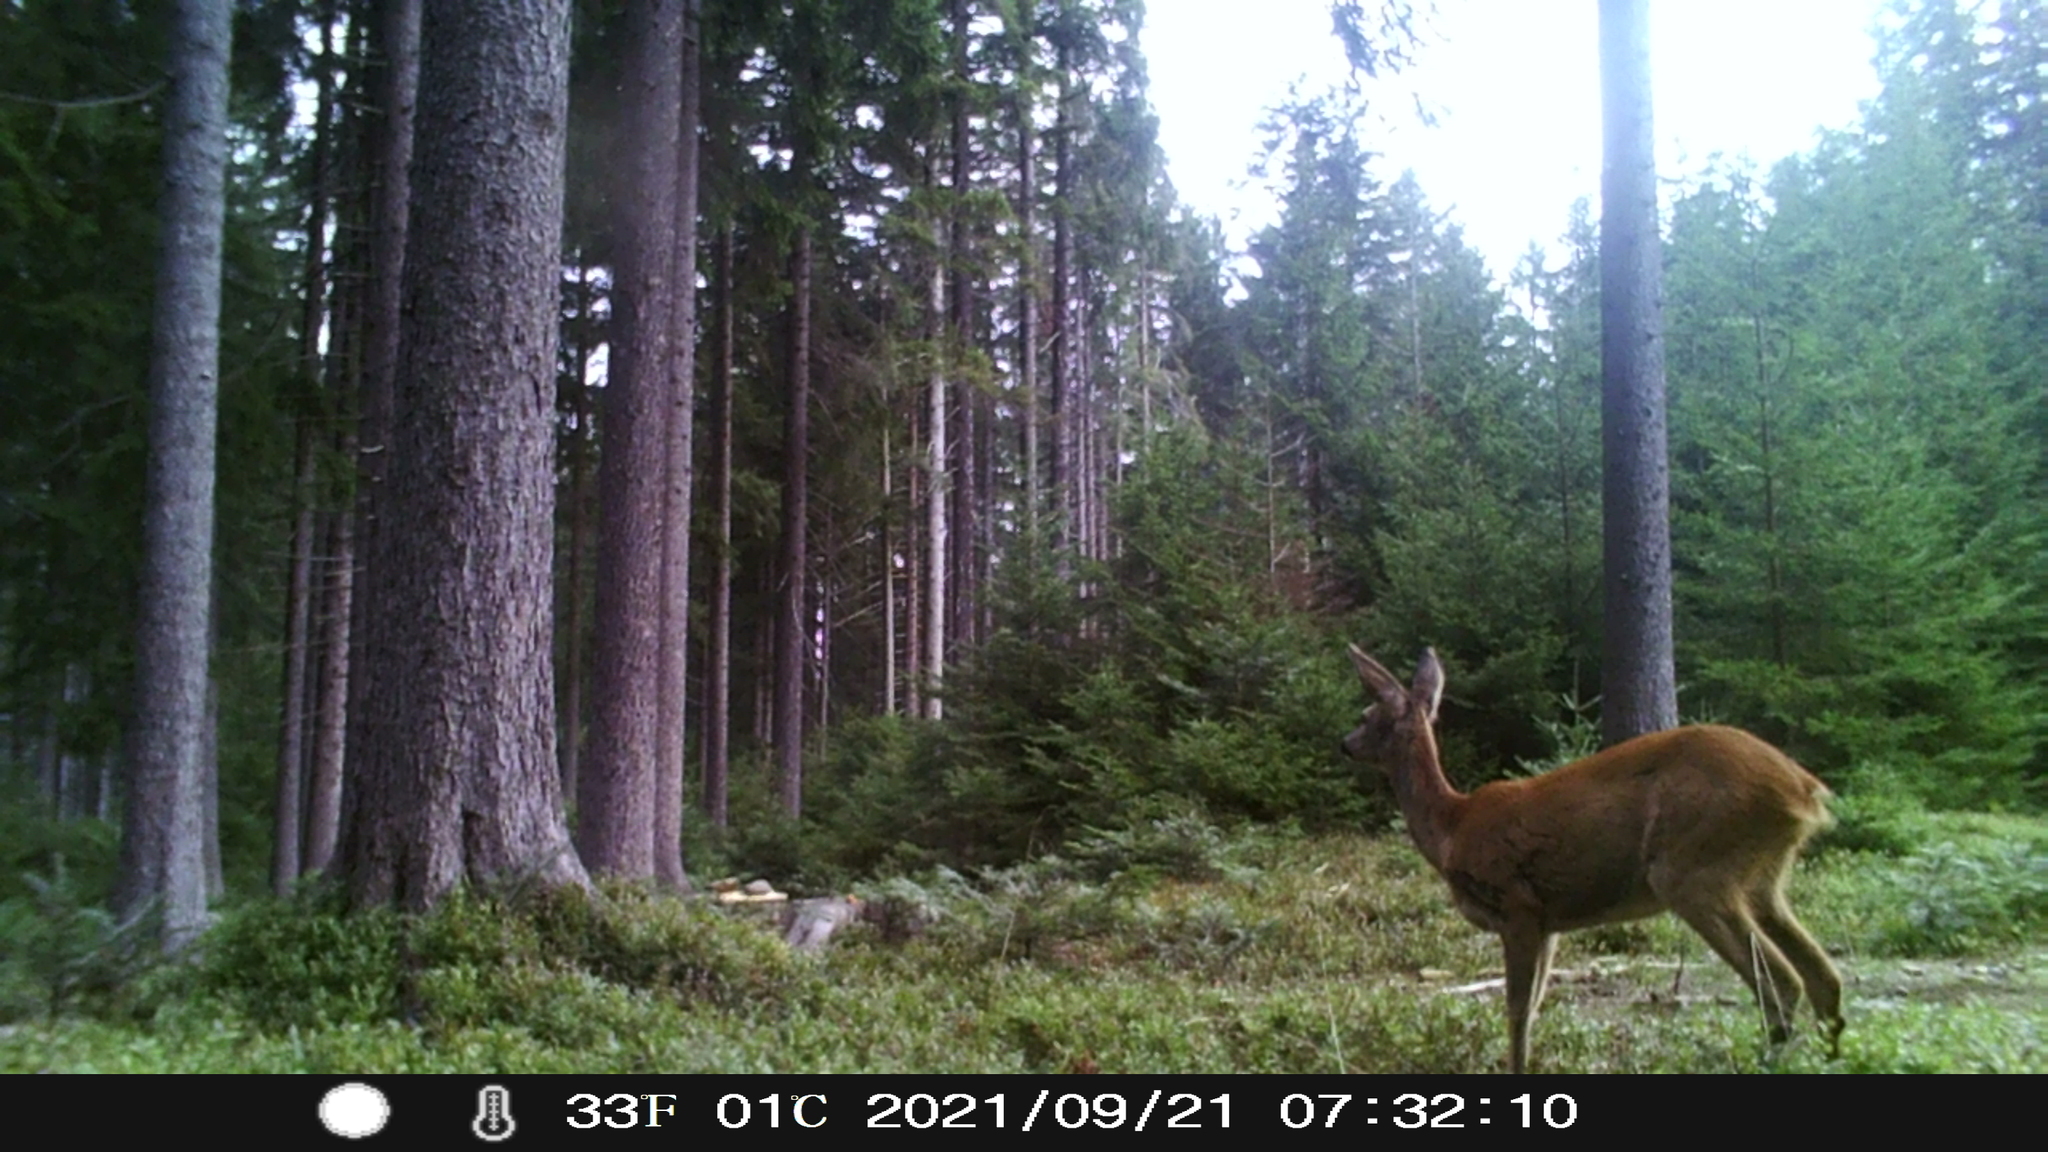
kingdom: Animalia
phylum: Chordata
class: Mammalia
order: Artiodactyla
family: Cervidae
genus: Capreolus
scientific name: Capreolus capreolus
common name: Western roe deer
